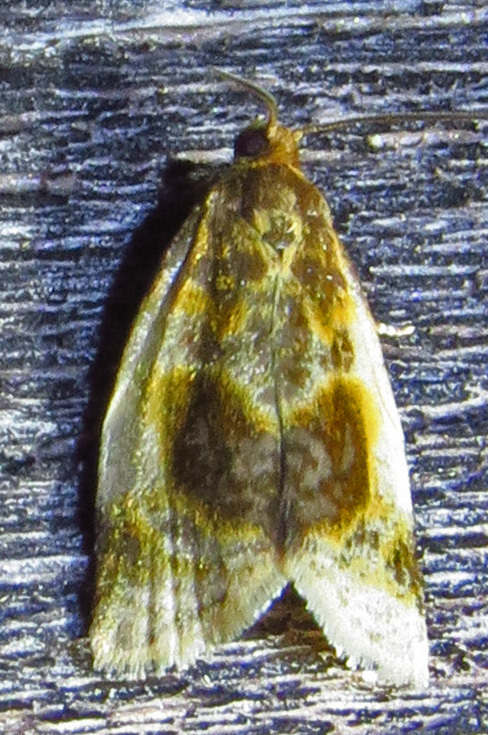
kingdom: Animalia
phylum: Arthropoda
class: Insecta
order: Lepidoptera
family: Tortricidae
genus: Clepsis
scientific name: Clepsis melaleucanus
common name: American apple tortrix
